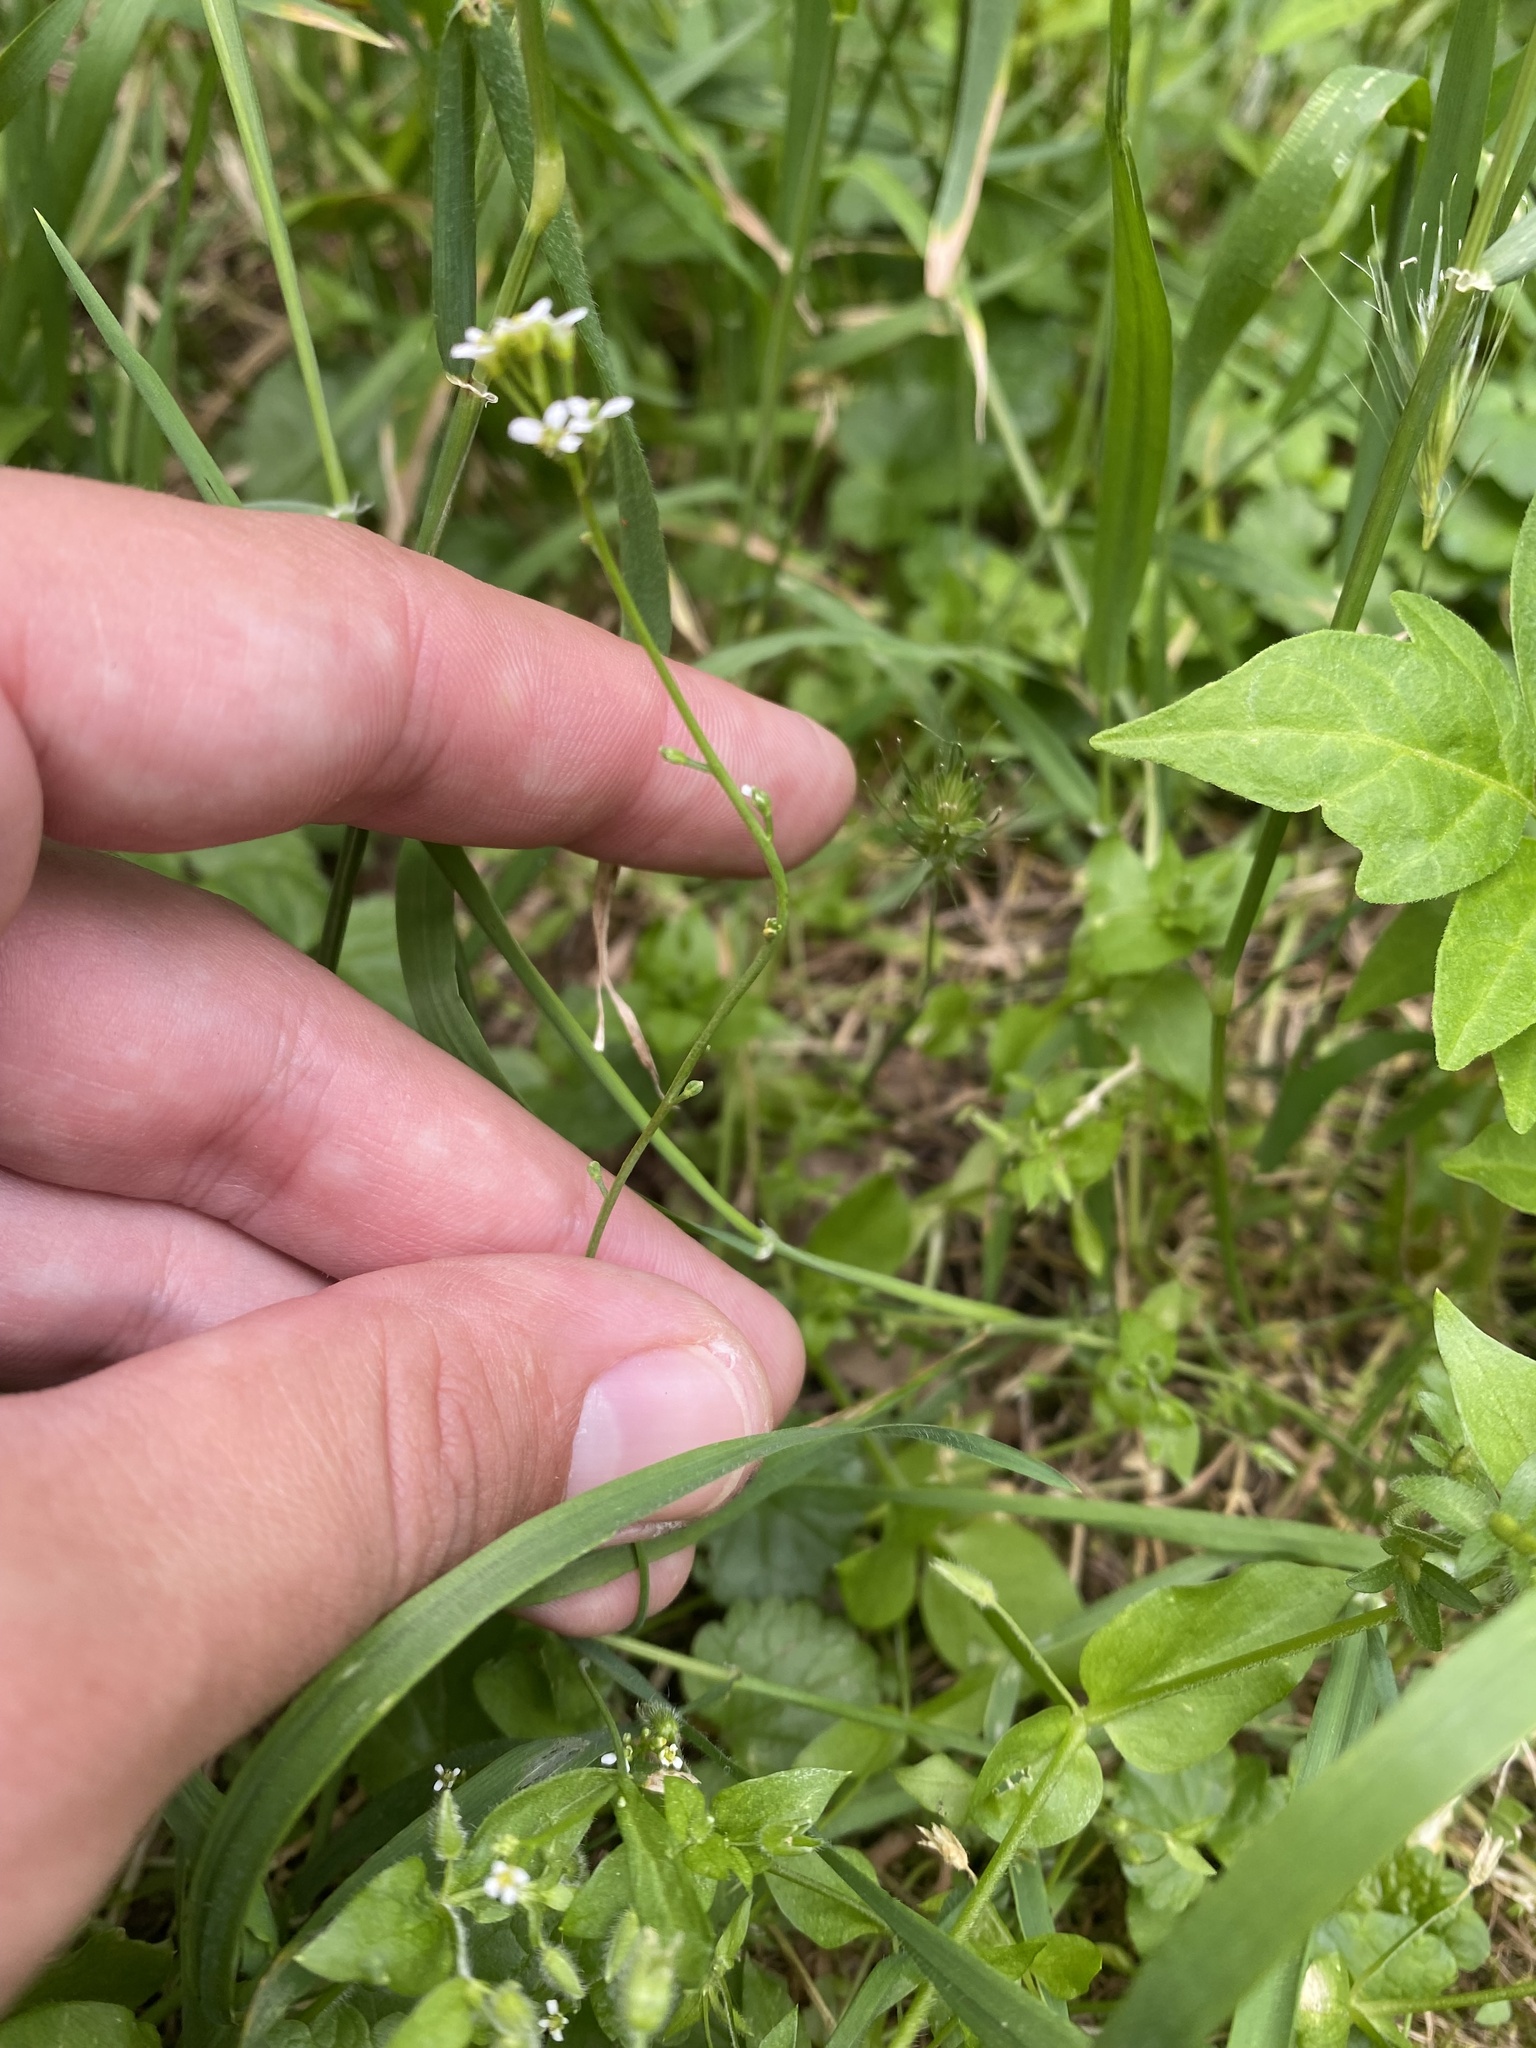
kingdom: Plantae
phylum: Tracheophyta
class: Magnoliopsida
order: Brassicales
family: Brassicaceae
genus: Calepina
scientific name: Calepina irregularis
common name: White ballmustard
